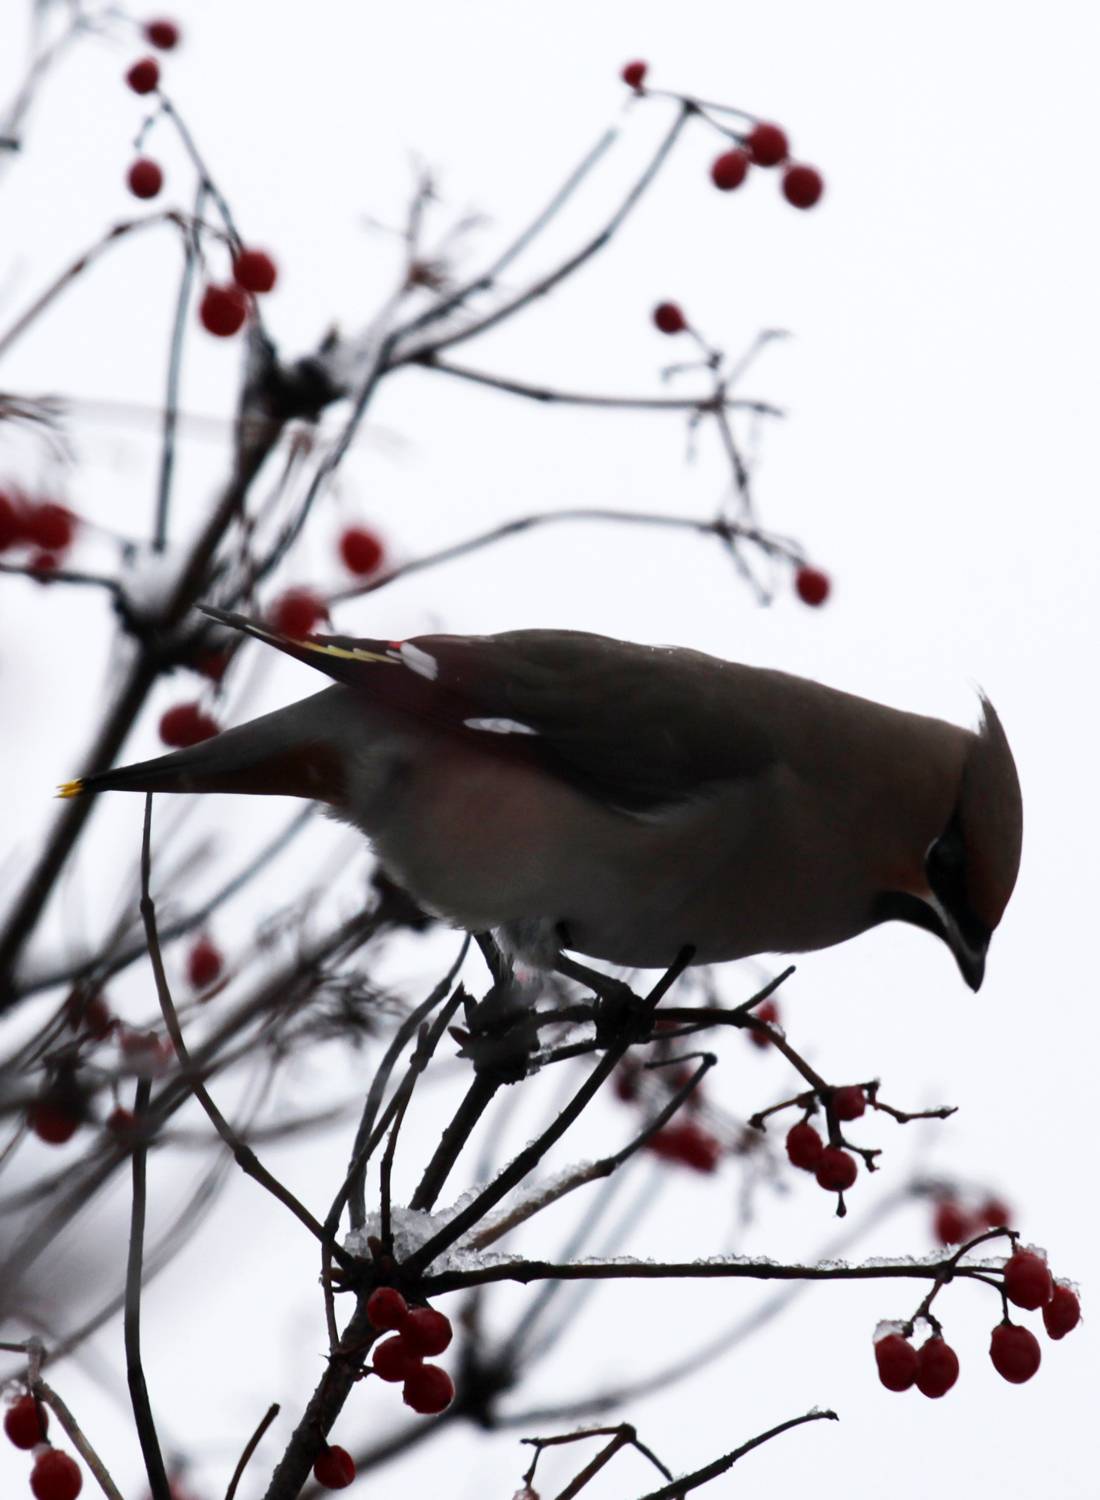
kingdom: Animalia
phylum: Chordata
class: Aves
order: Passeriformes
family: Bombycillidae
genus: Bombycilla
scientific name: Bombycilla garrulus
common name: Bohemian waxwing
